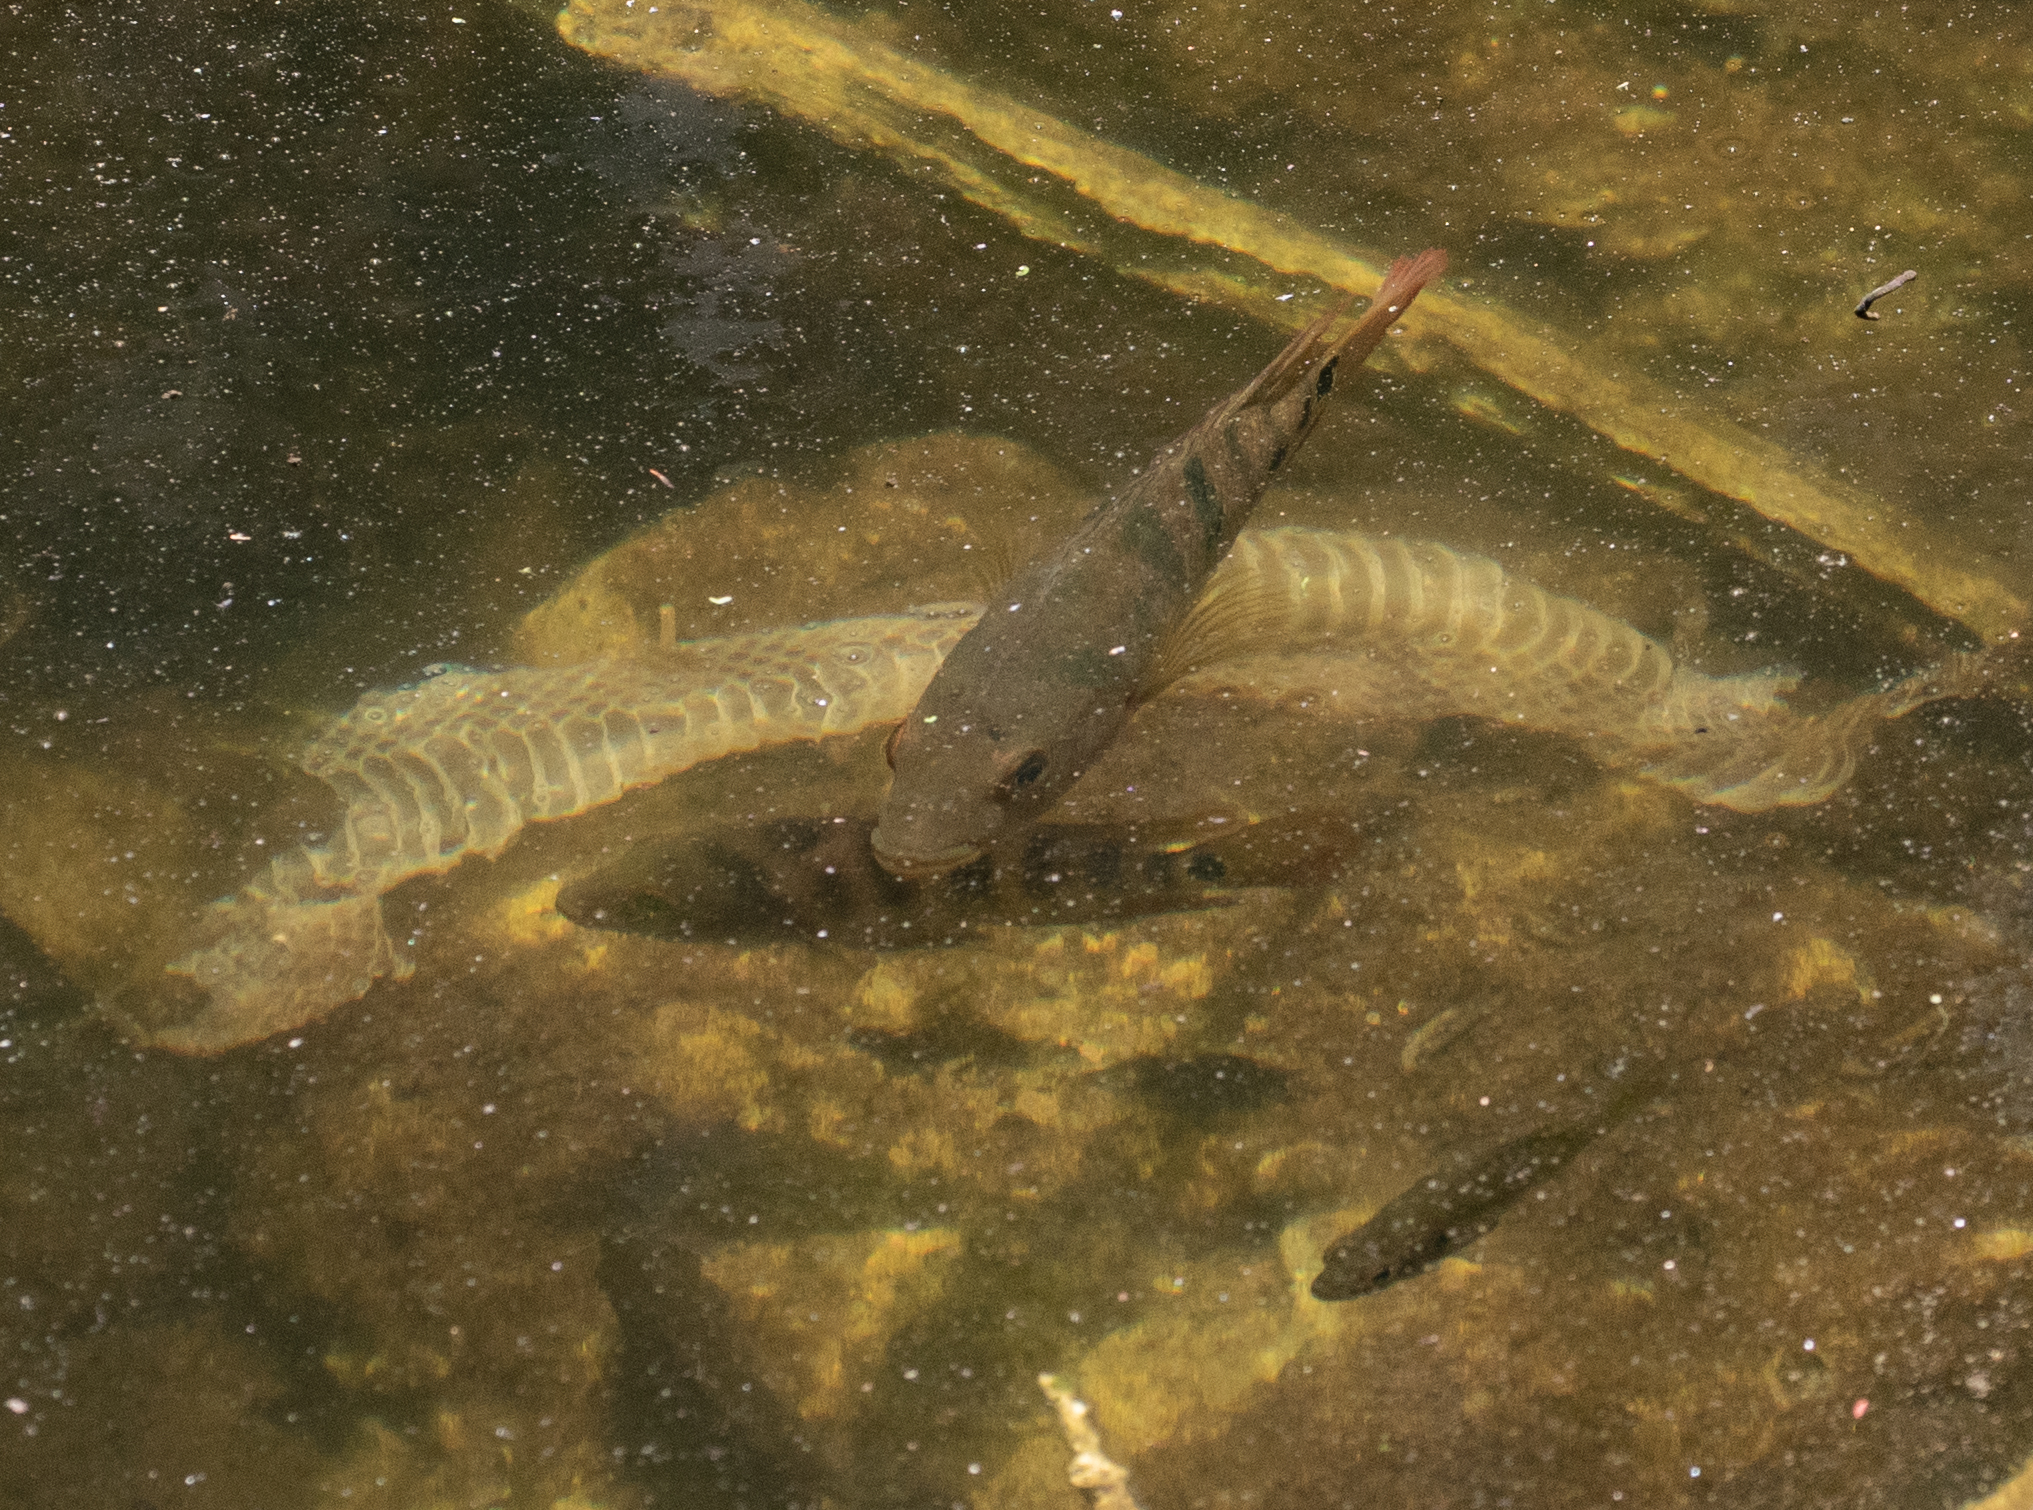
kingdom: Animalia
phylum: Chordata
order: Perciformes
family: Cichlidae
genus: Mayaheros
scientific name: Mayaheros urophthalmus
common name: Mayan cichlid
